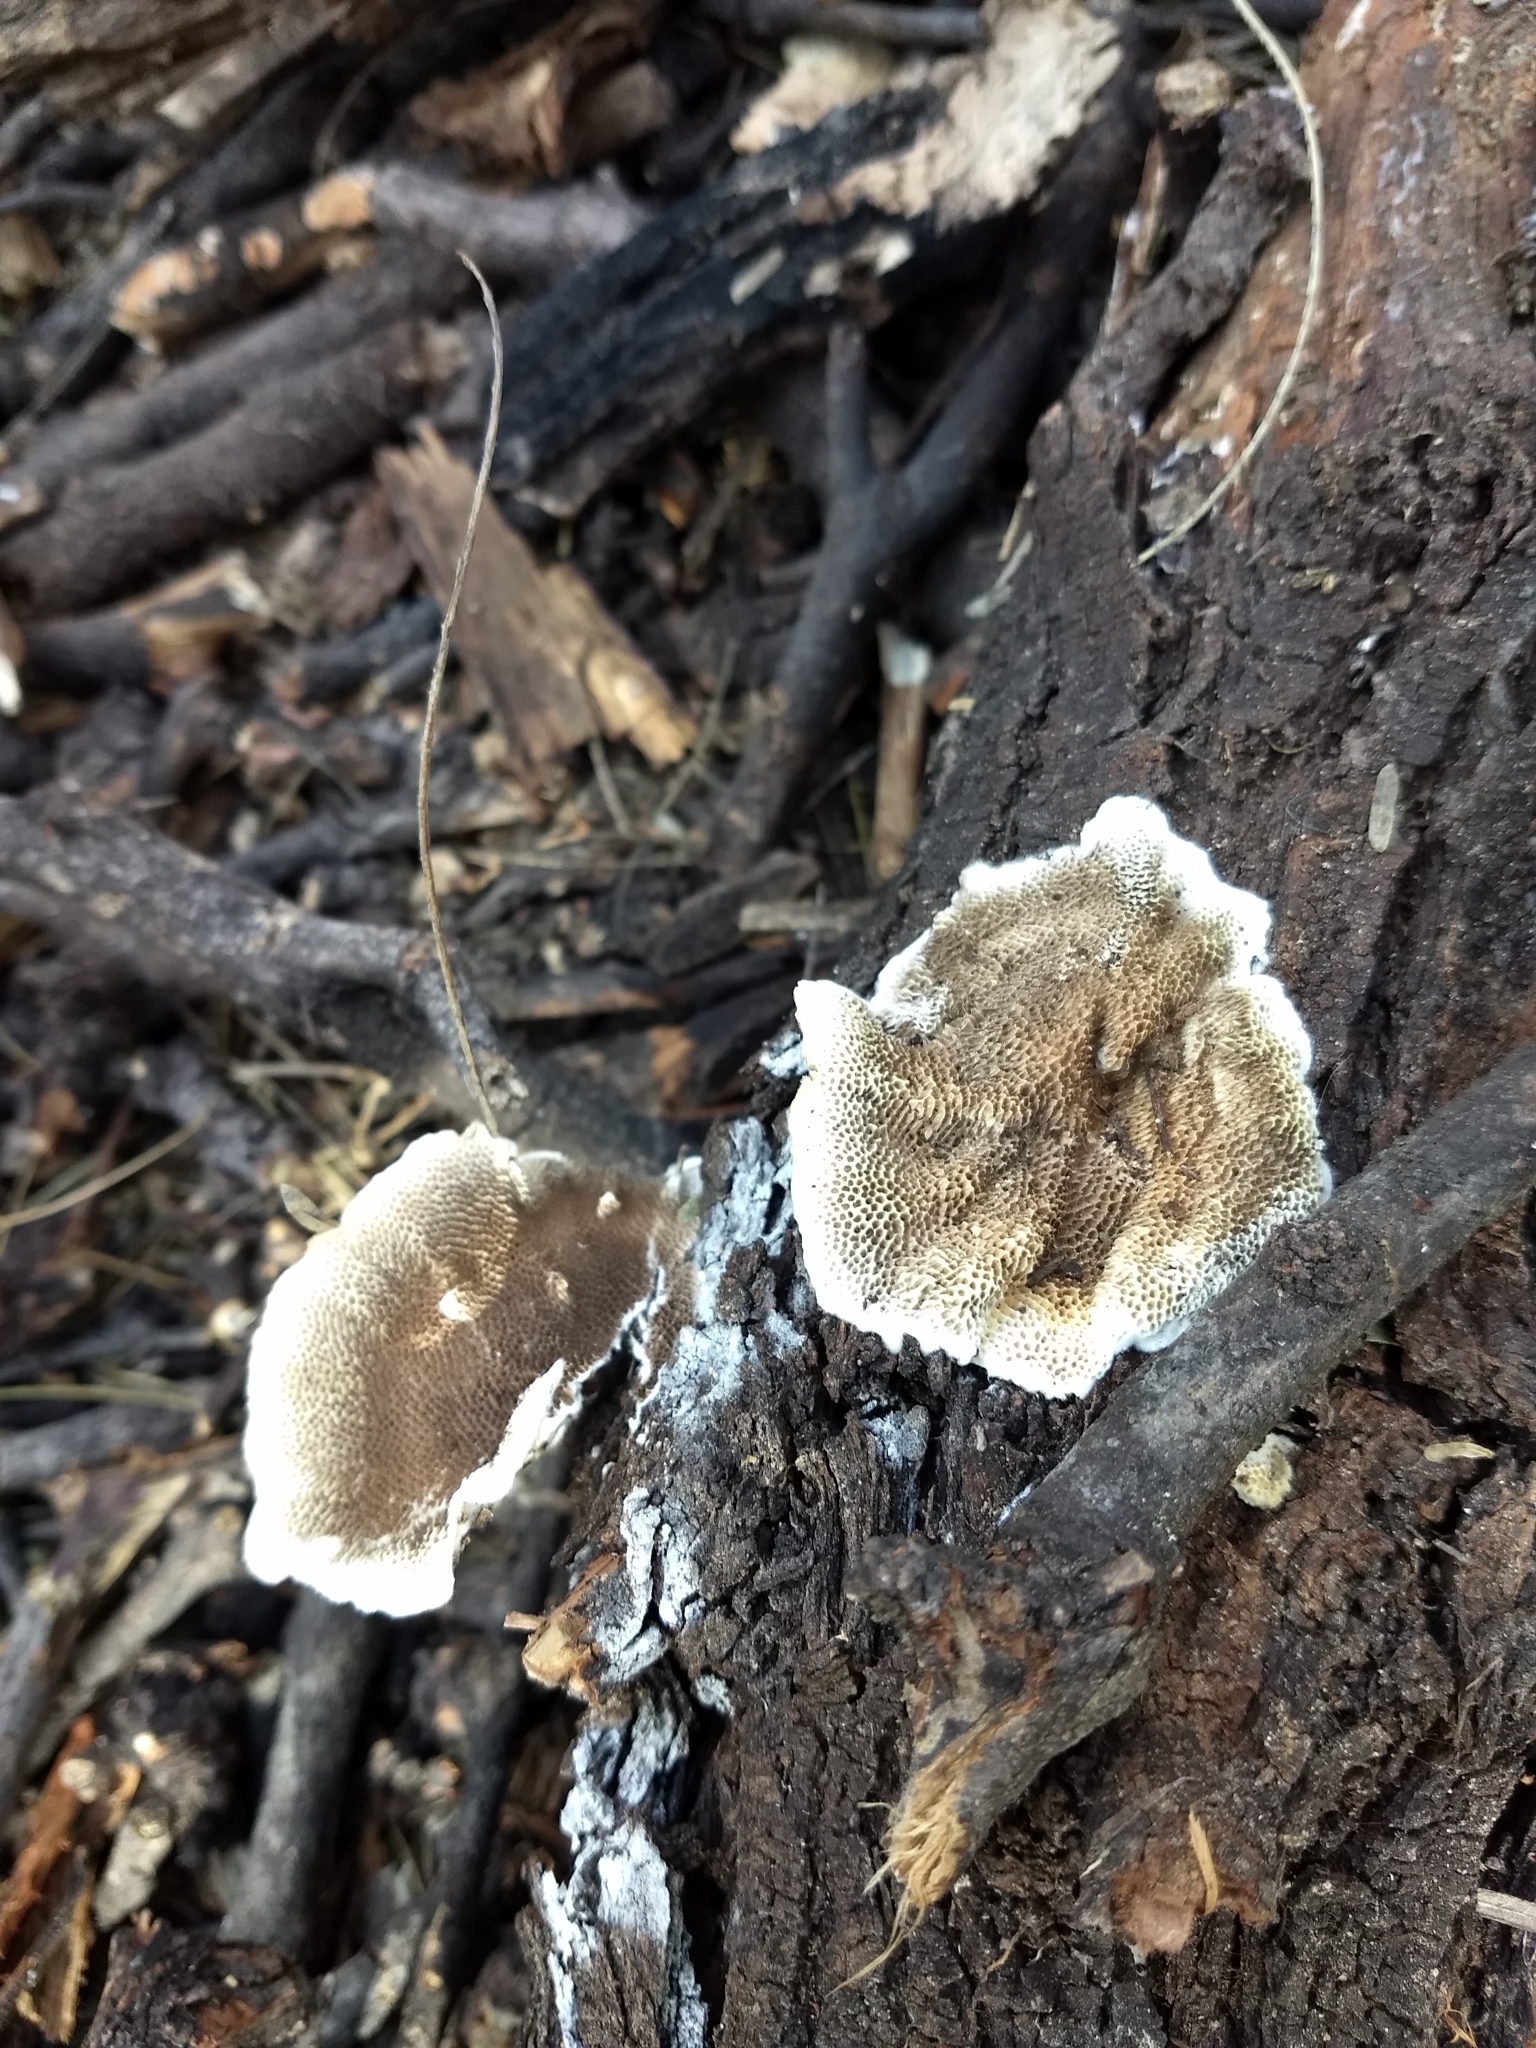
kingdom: Fungi
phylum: Basidiomycota
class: Agaricomycetes
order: Polyporales
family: Polyporaceae
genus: Trametes
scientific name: Trametes villosa
